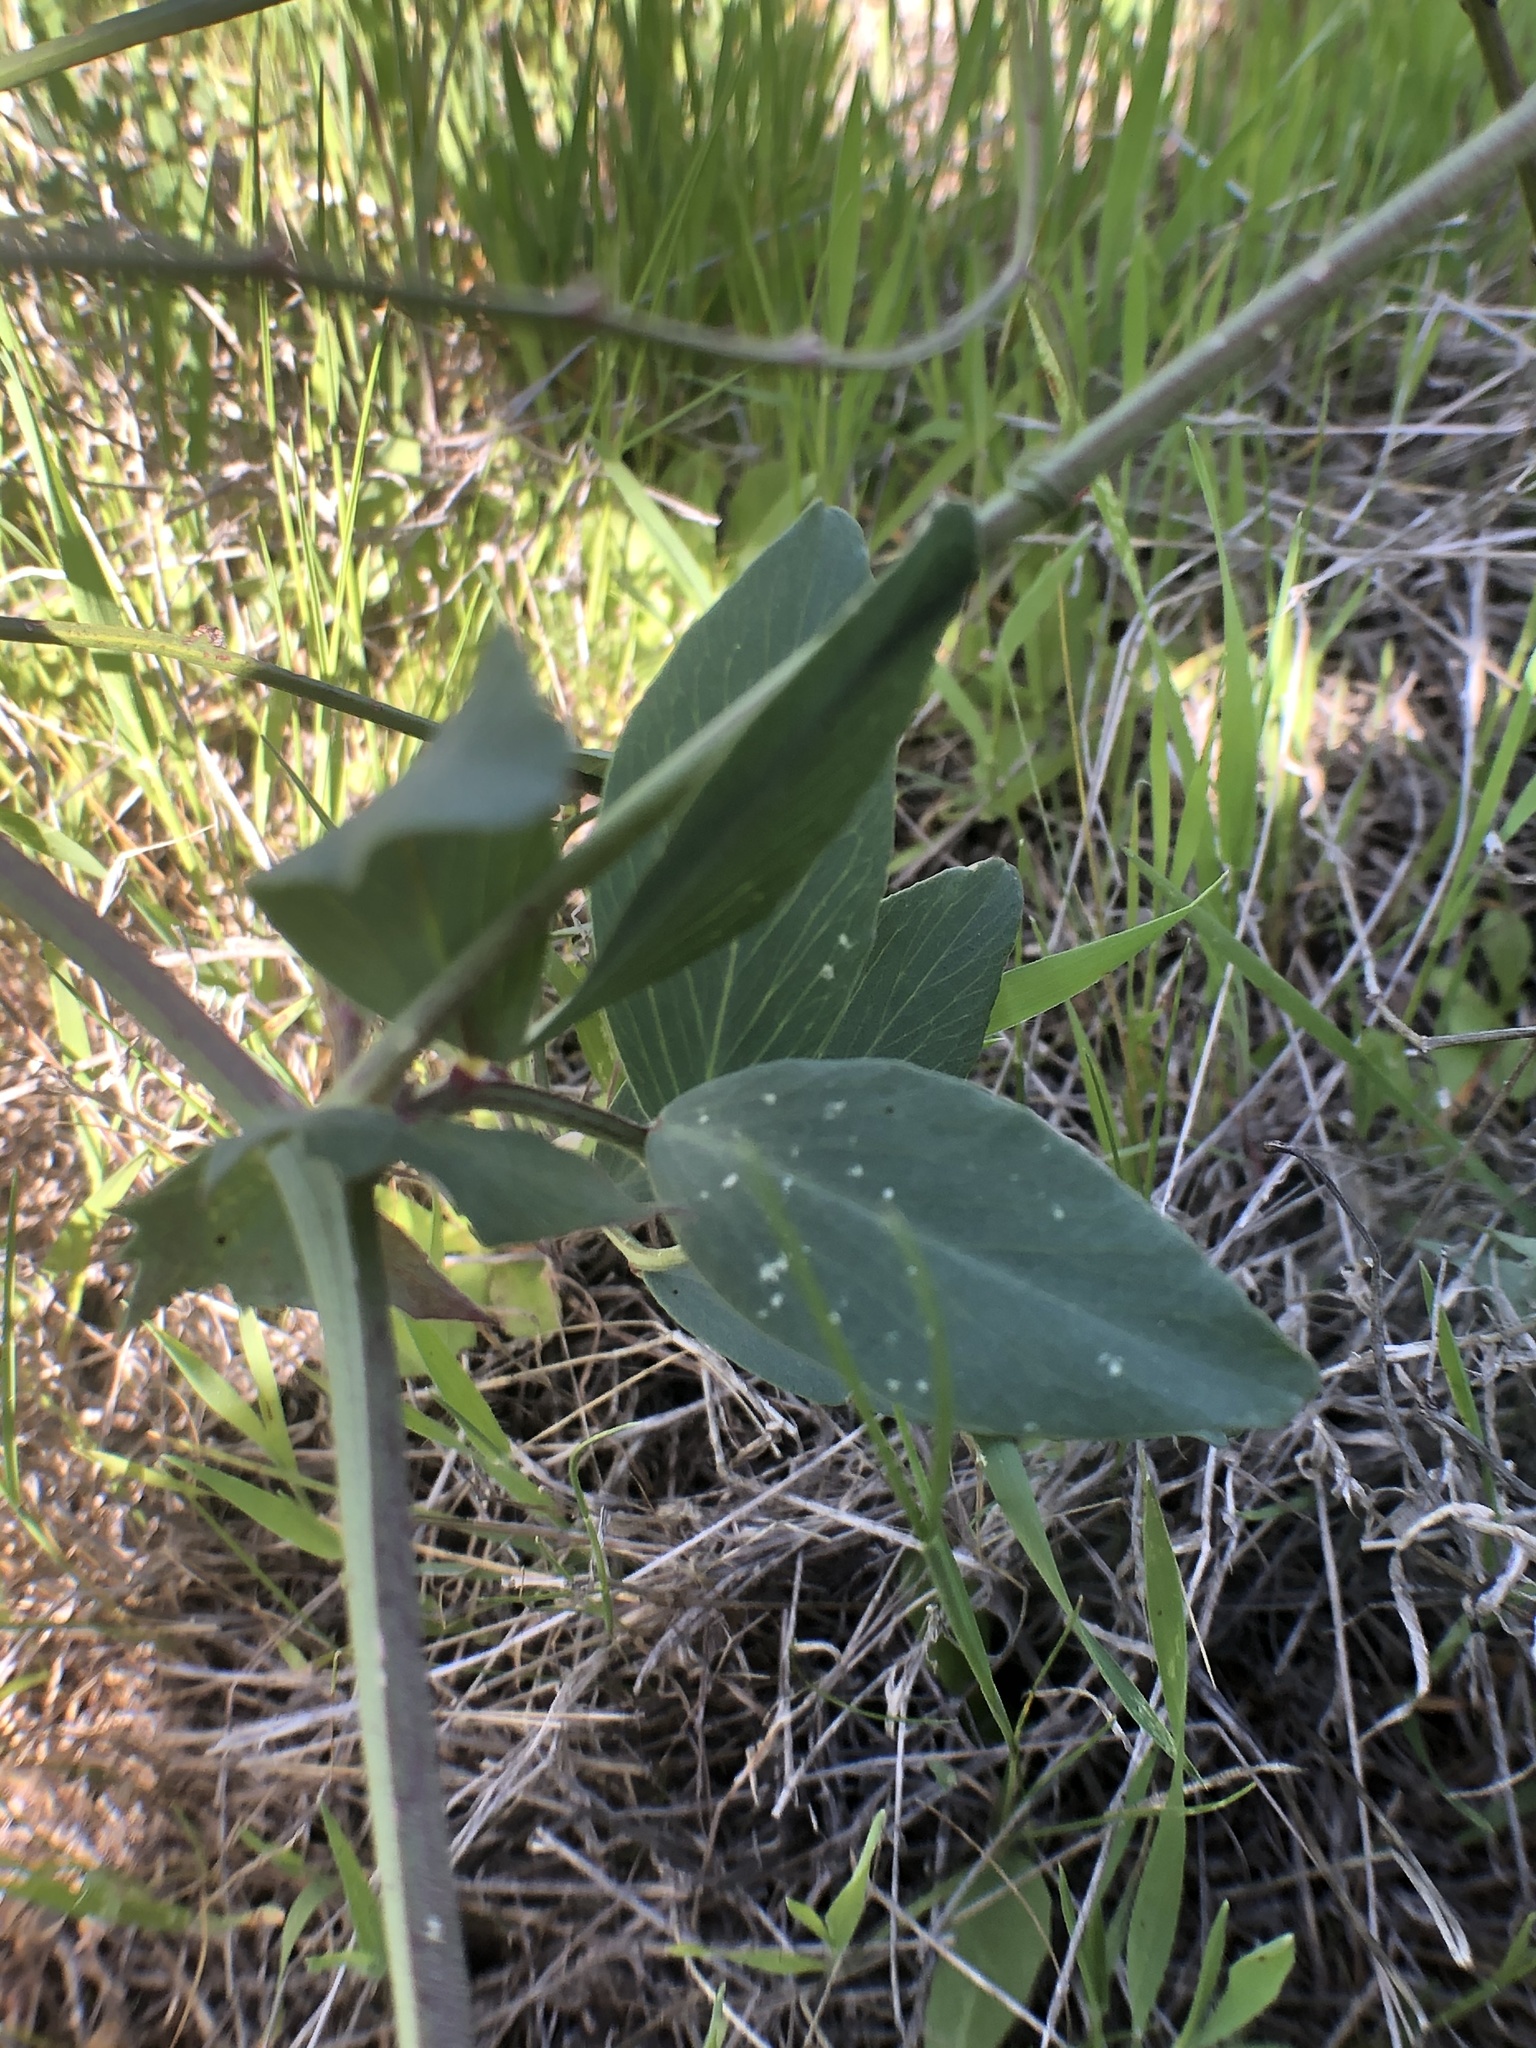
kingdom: Plantae
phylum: Tracheophyta
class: Magnoliopsida
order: Fabales
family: Fabaceae
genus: Lathyrus
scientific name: Lathyrus vestitus
